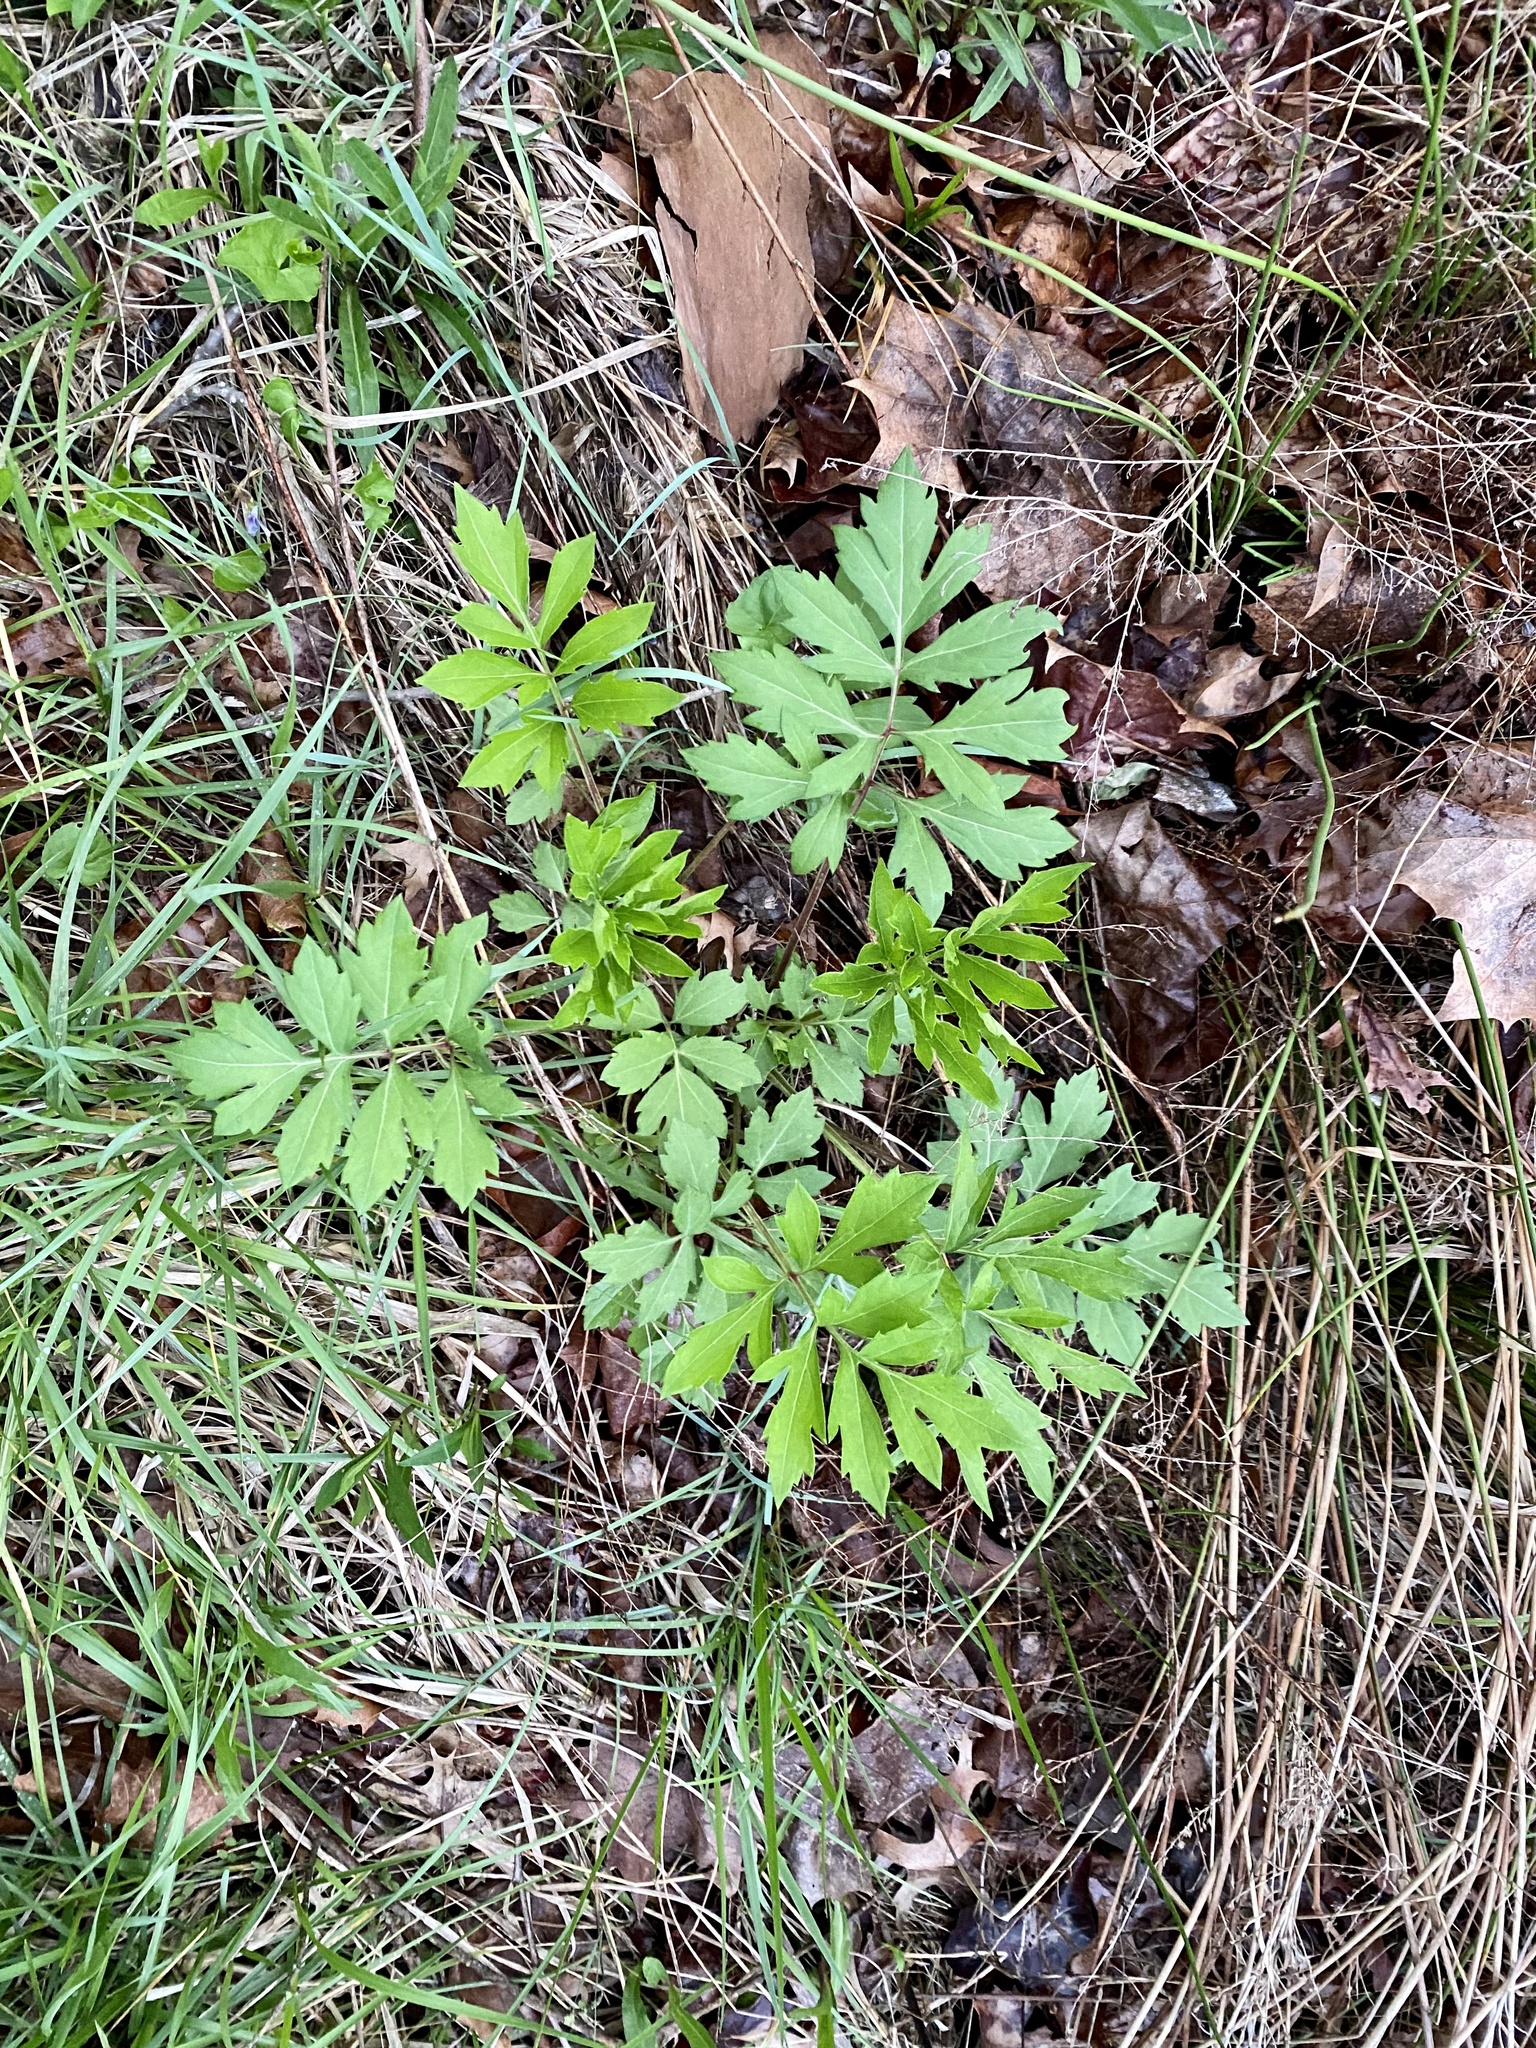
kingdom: Plantae
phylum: Tracheophyta
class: Magnoliopsida
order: Asterales
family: Asteraceae
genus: Rudbeckia
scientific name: Rudbeckia laciniata
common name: Coneflower
